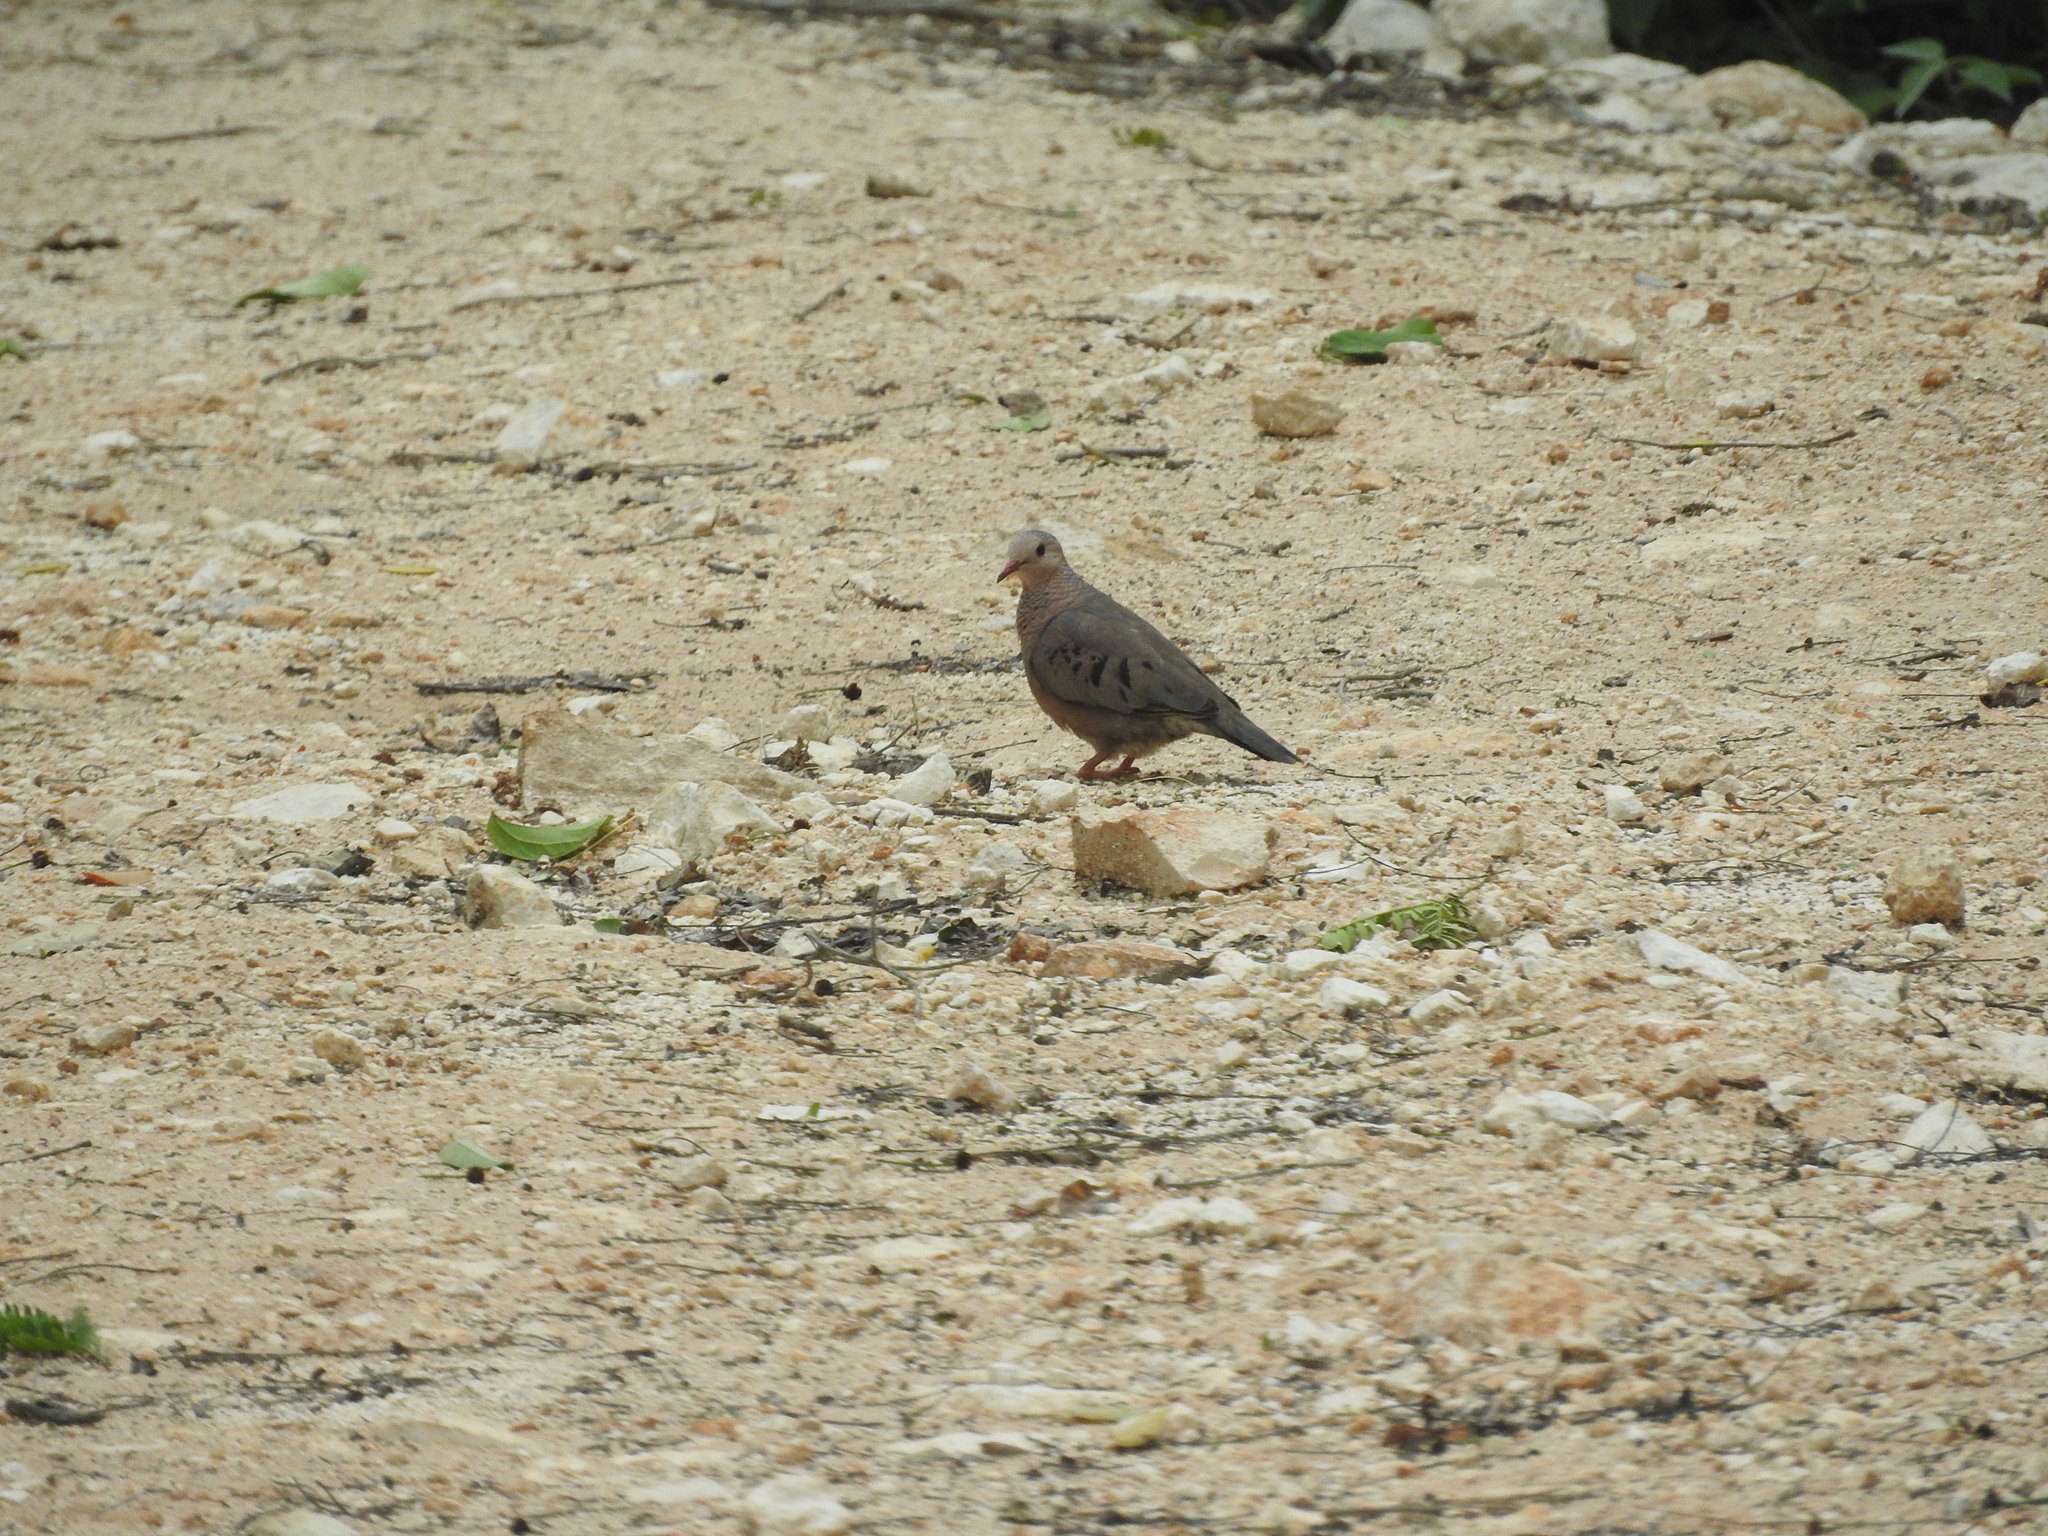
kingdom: Animalia
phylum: Chordata
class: Aves
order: Columbiformes
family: Columbidae
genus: Columbina
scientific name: Columbina passerina
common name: Common ground-dove
